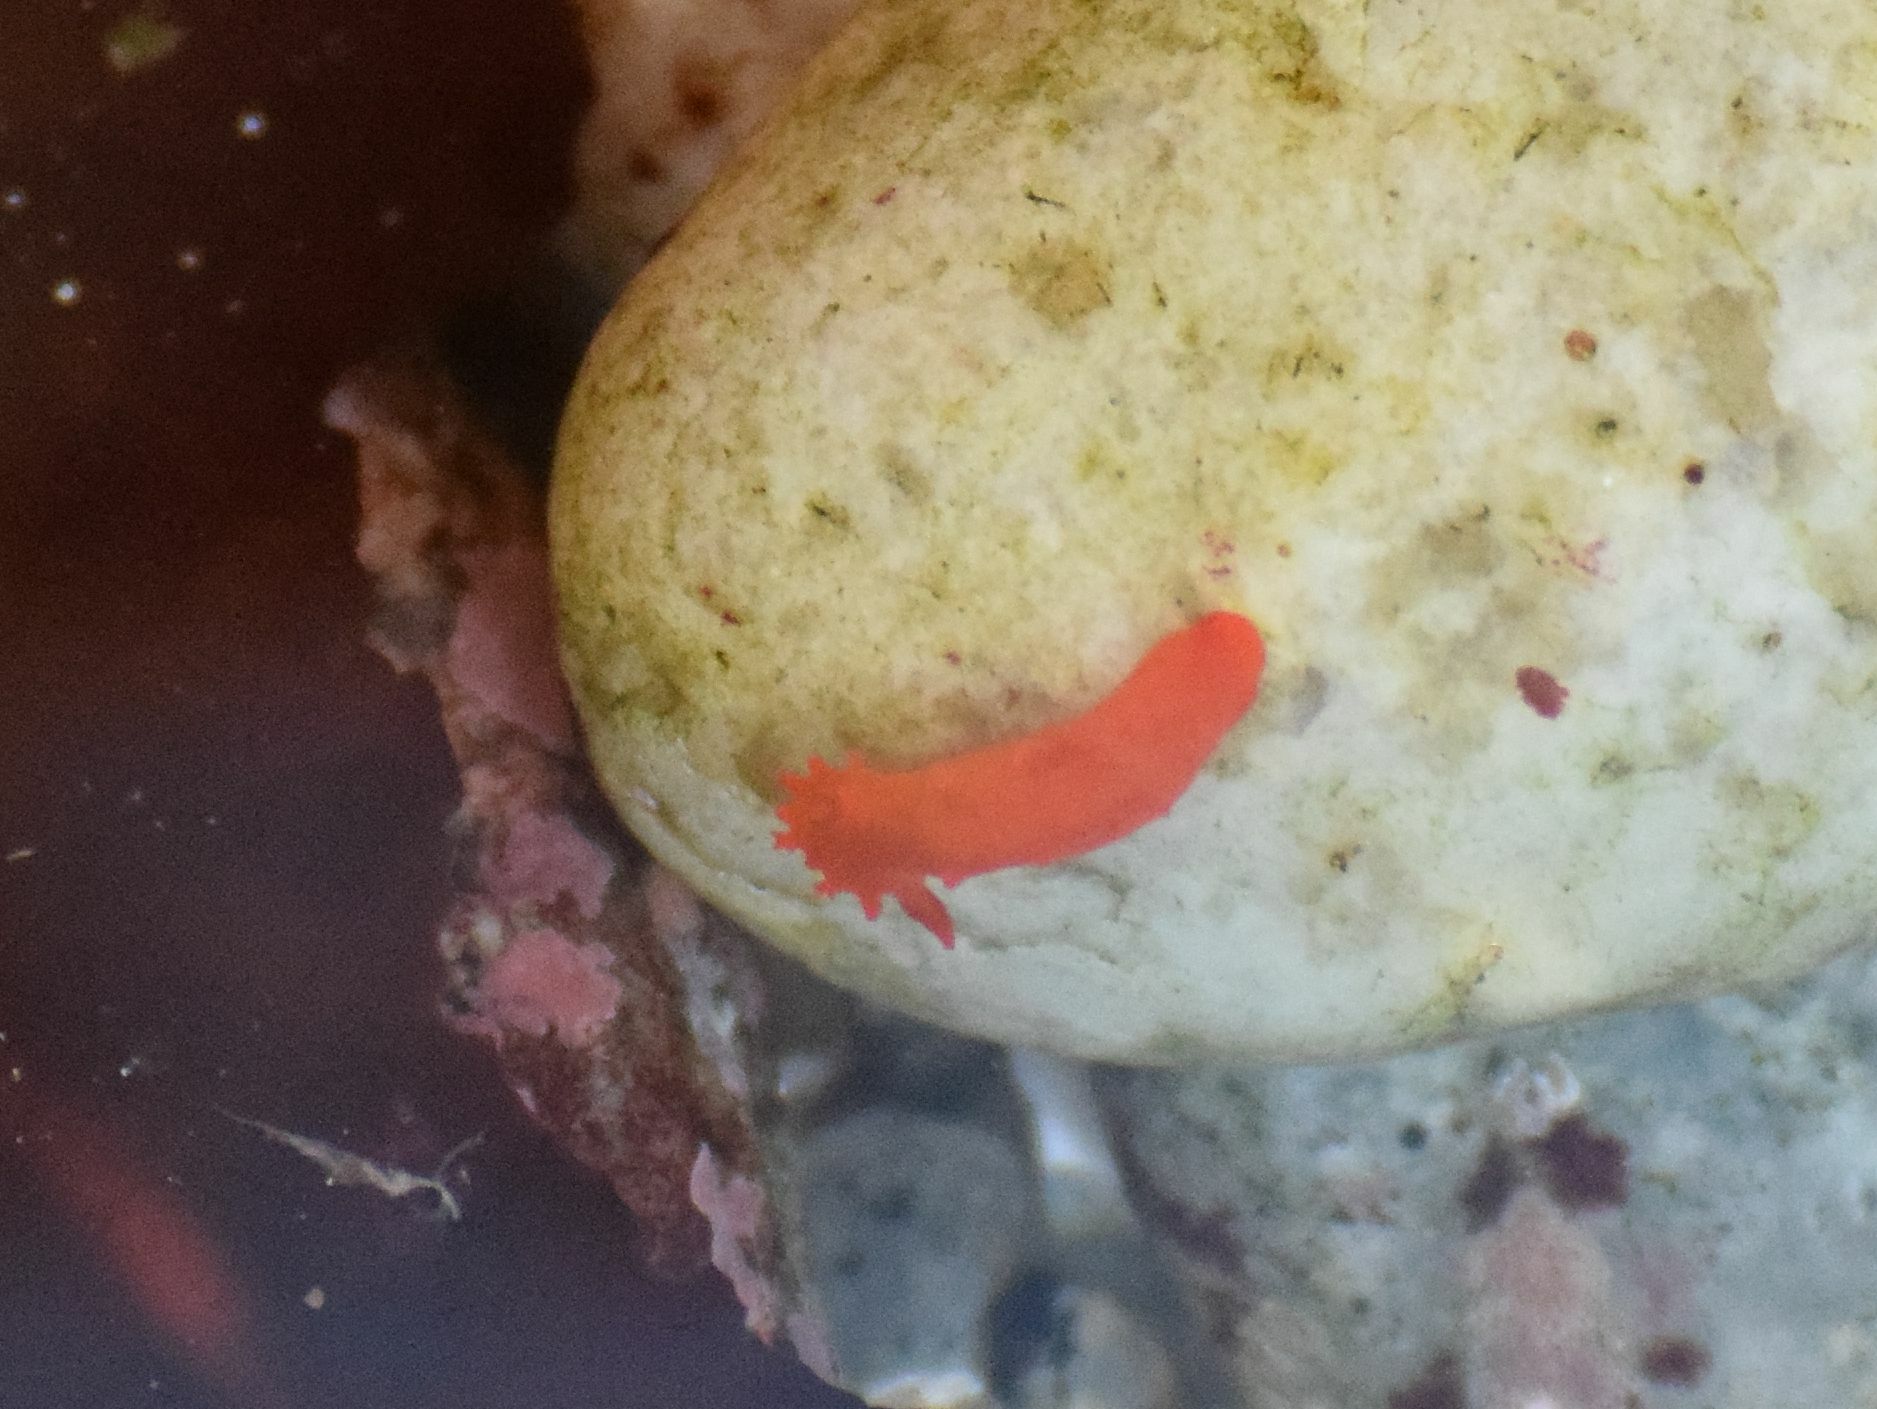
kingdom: Animalia
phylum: Mollusca
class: Gastropoda
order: Nudibranchia
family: Polyceridae
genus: Triopha
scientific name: Triopha maculata
